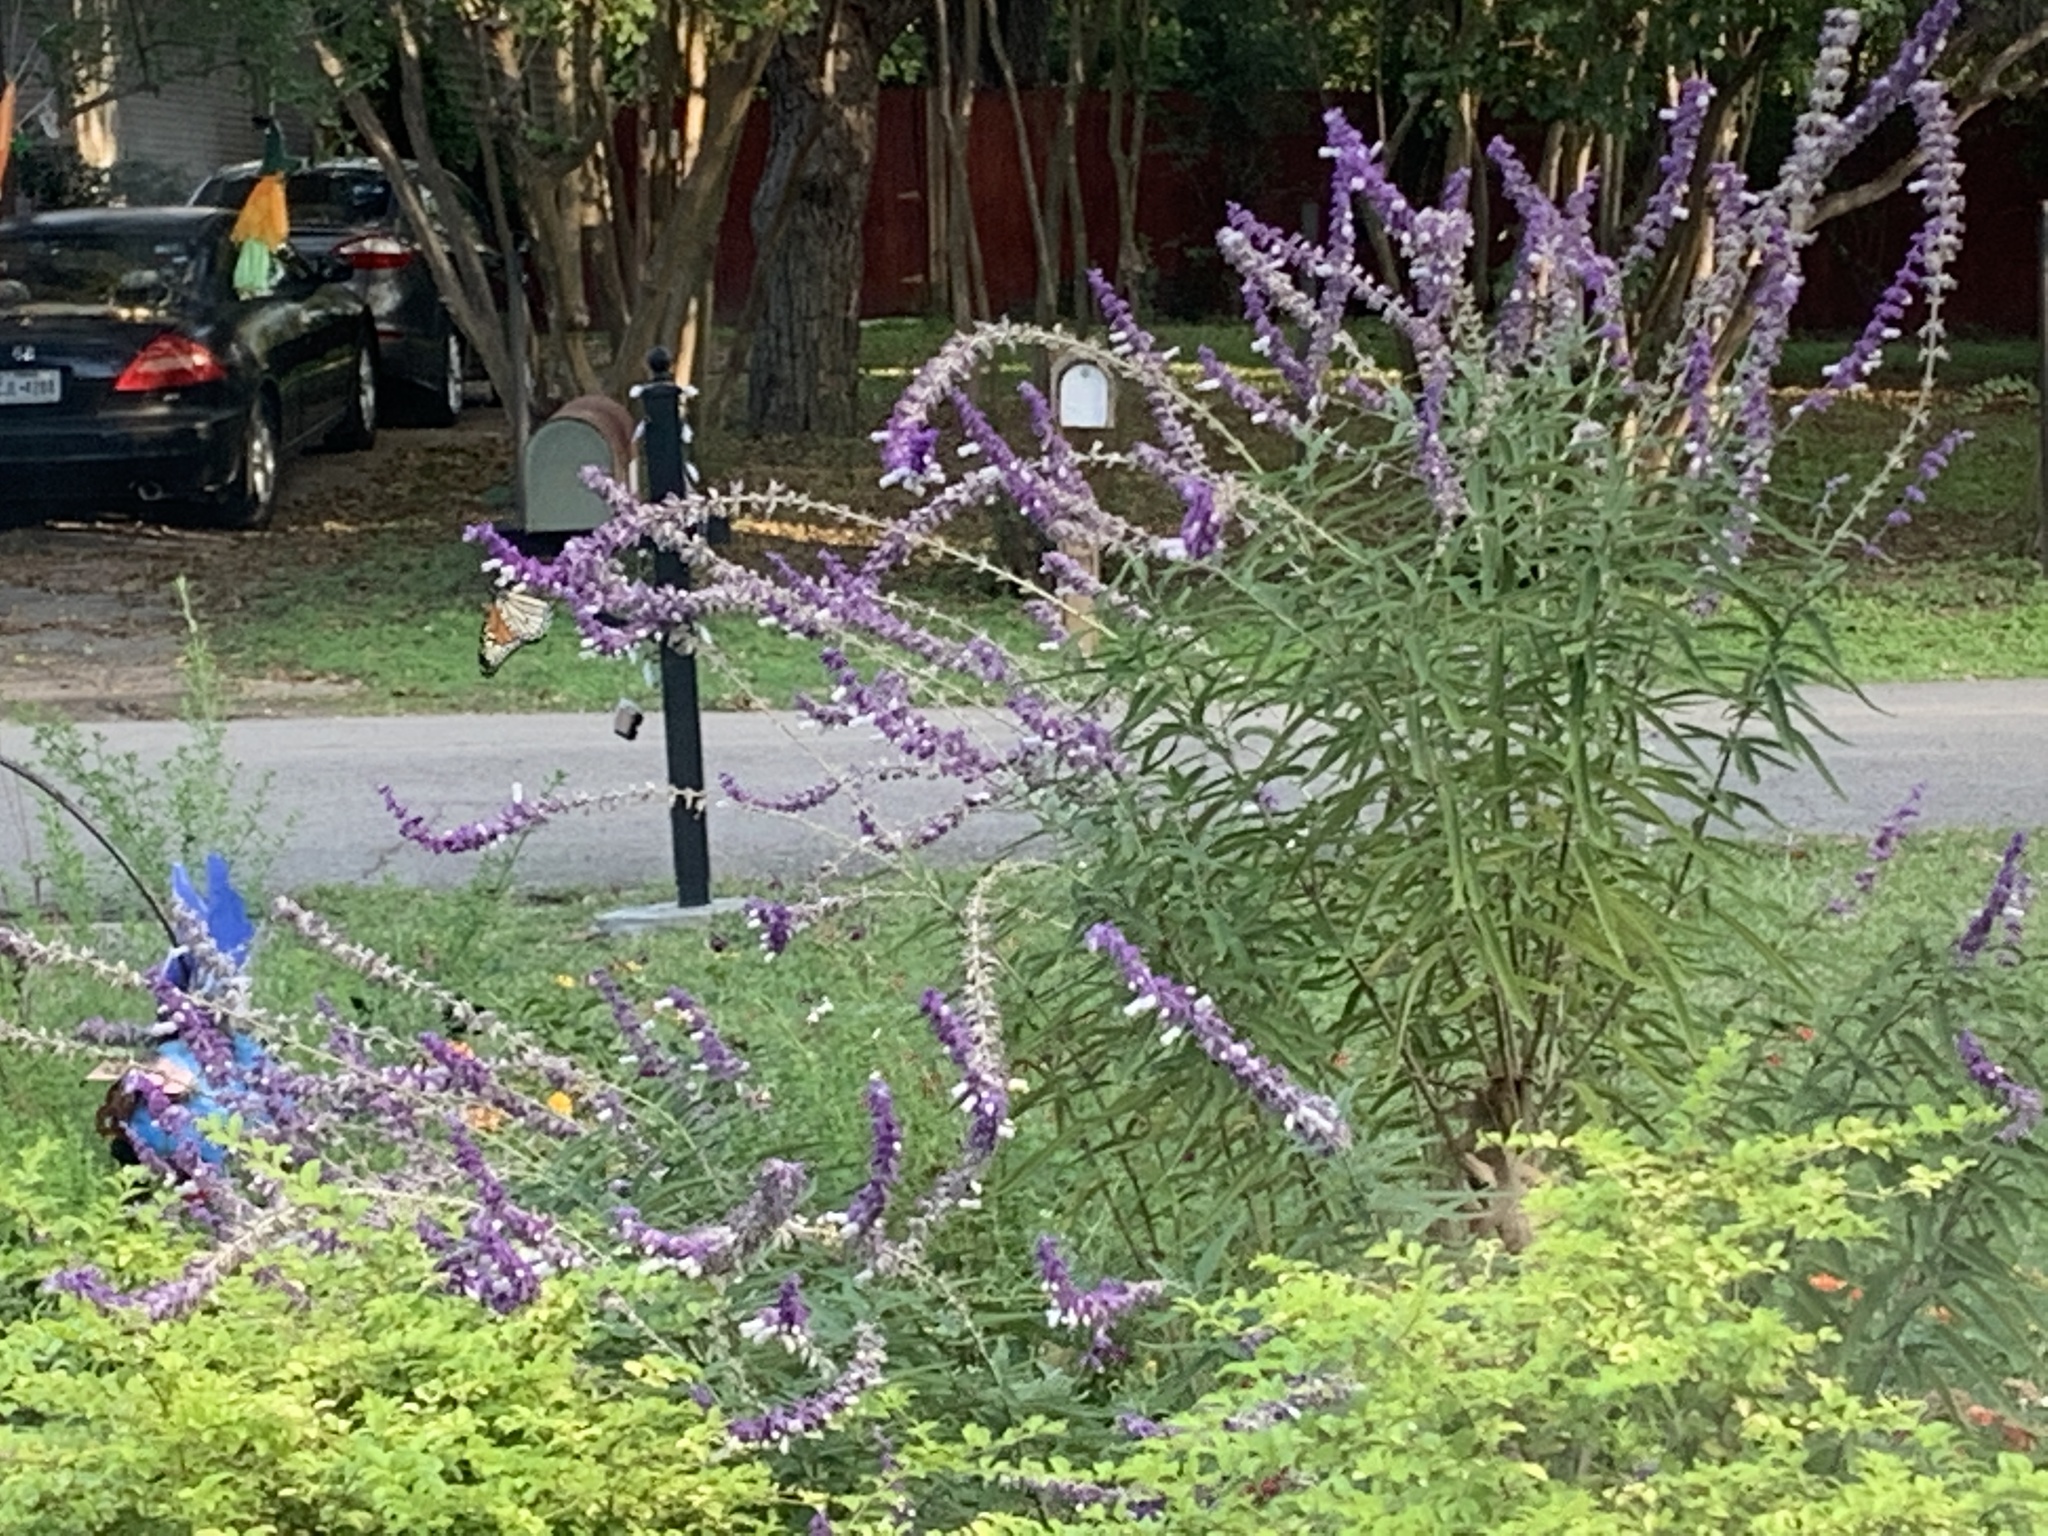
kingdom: Animalia
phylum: Arthropoda
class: Insecta
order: Lepidoptera
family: Nymphalidae
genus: Danaus
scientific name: Danaus plexippus
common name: Monarch
